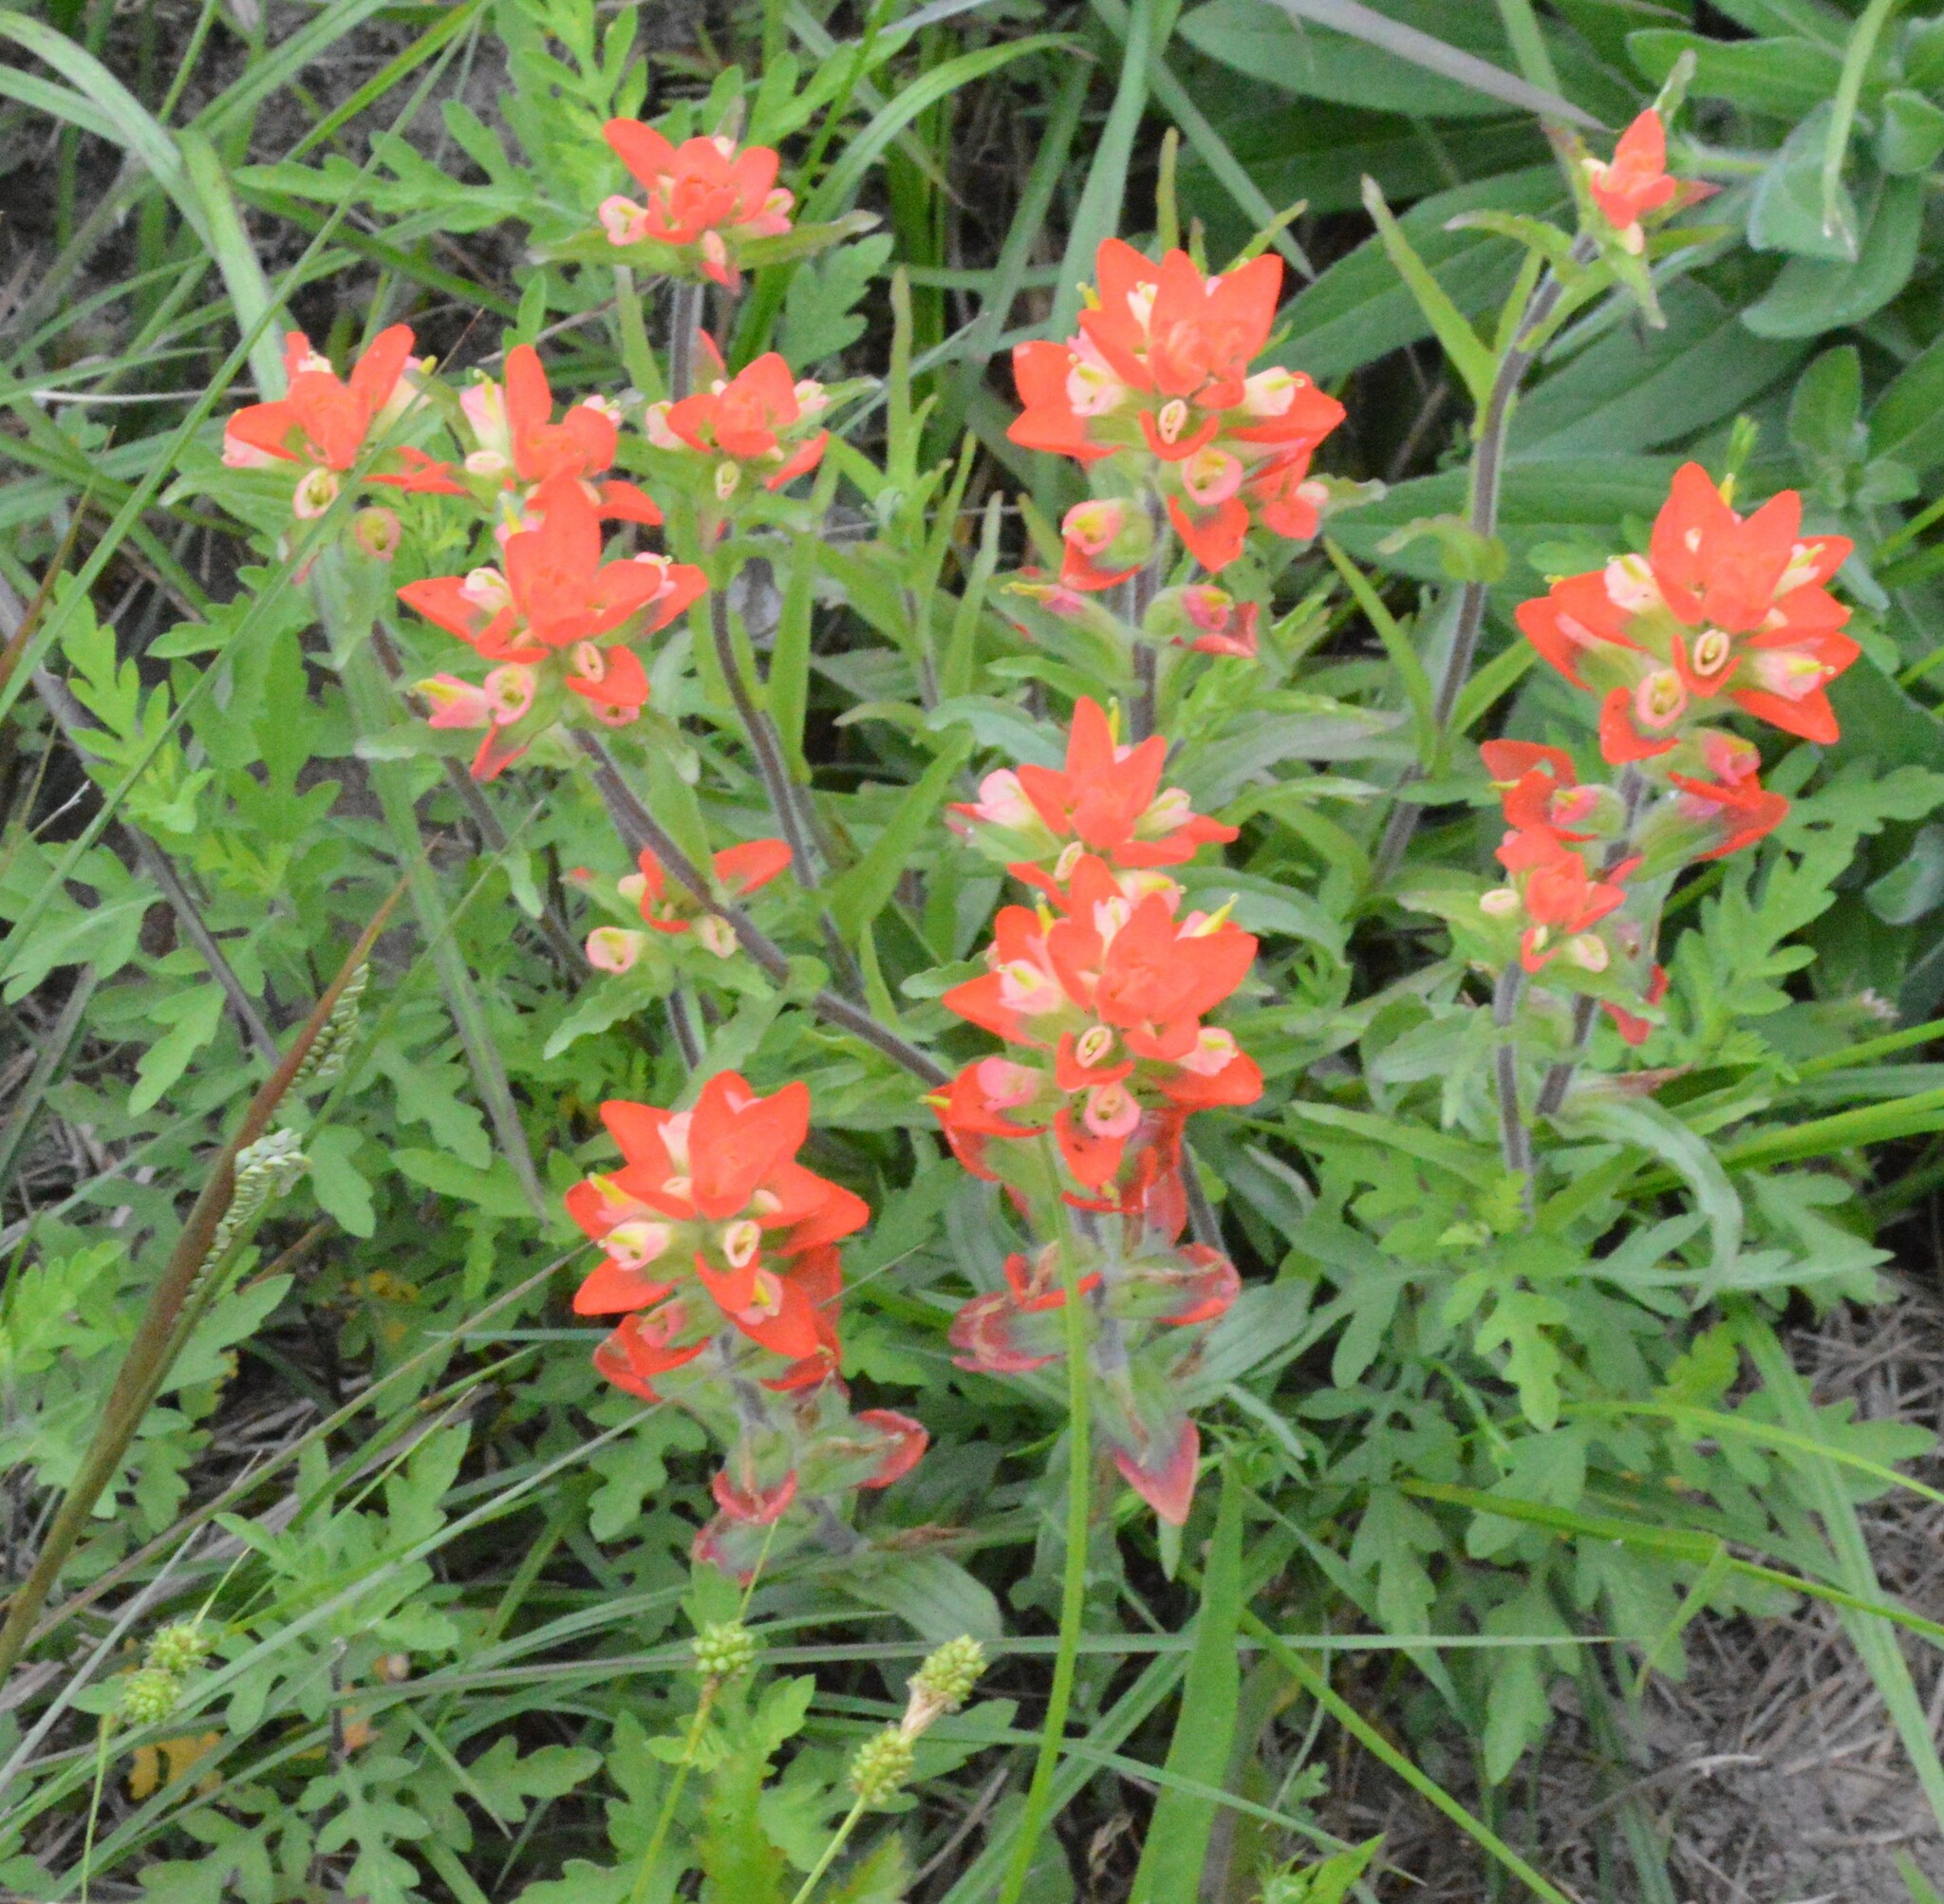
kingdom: Plantae
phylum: Tracheophyta
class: Magnoliopsida
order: Lamiales
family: Orobanchaceae
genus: Castilleja
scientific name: Castilleja indivisa
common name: Texas paintbrush
